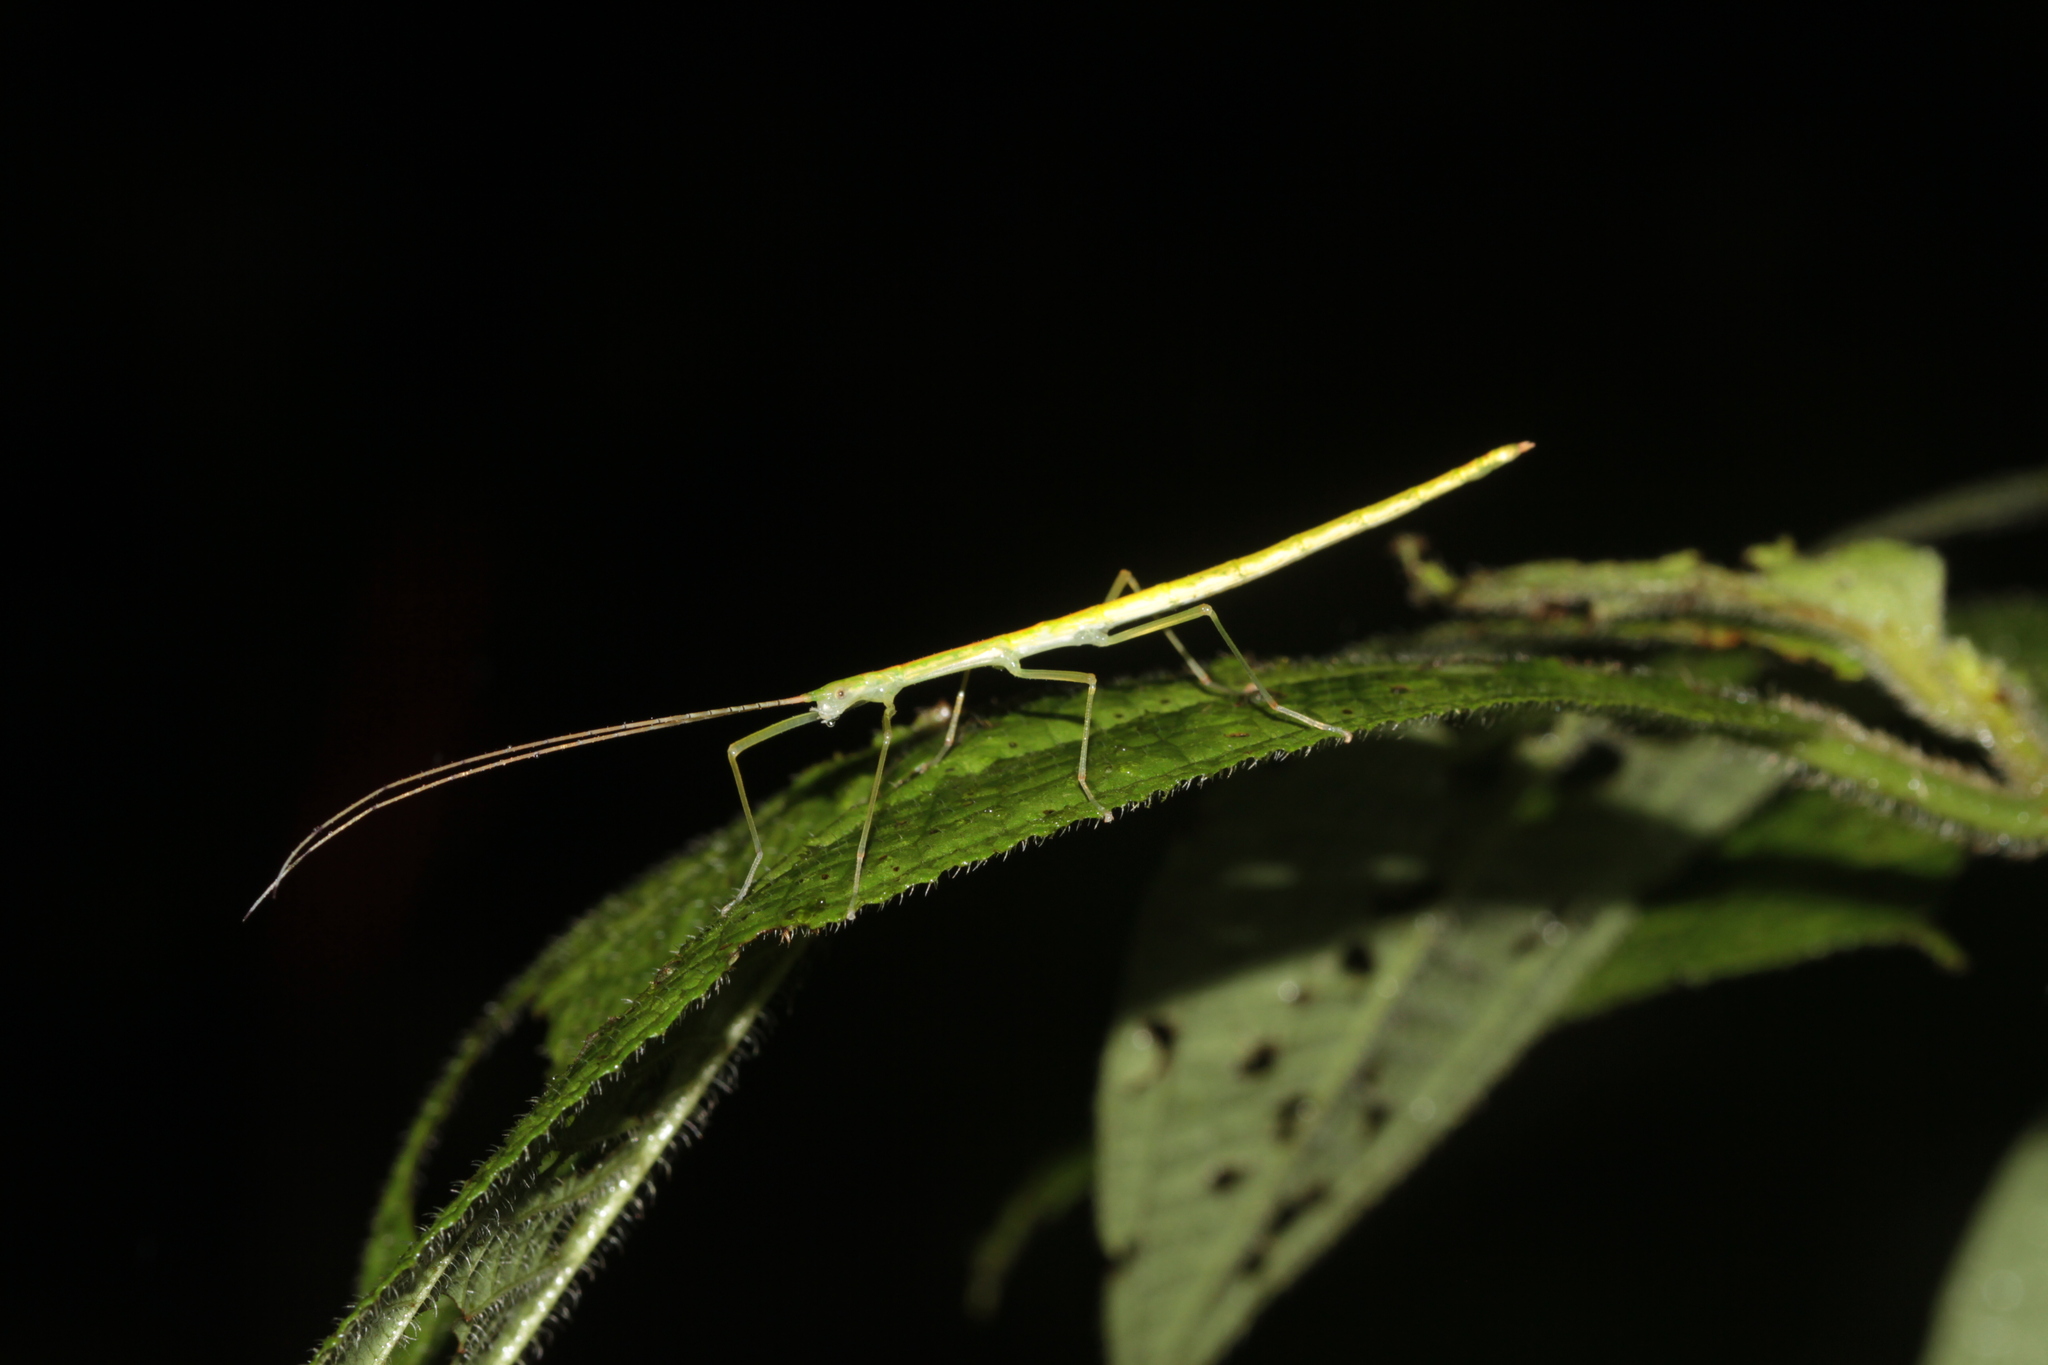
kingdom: Animalia
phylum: Arthropoda
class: Insecta
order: Phasmida
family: Pseudophasmatidae
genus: Cesaphasma
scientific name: Cesaphasma servillei
